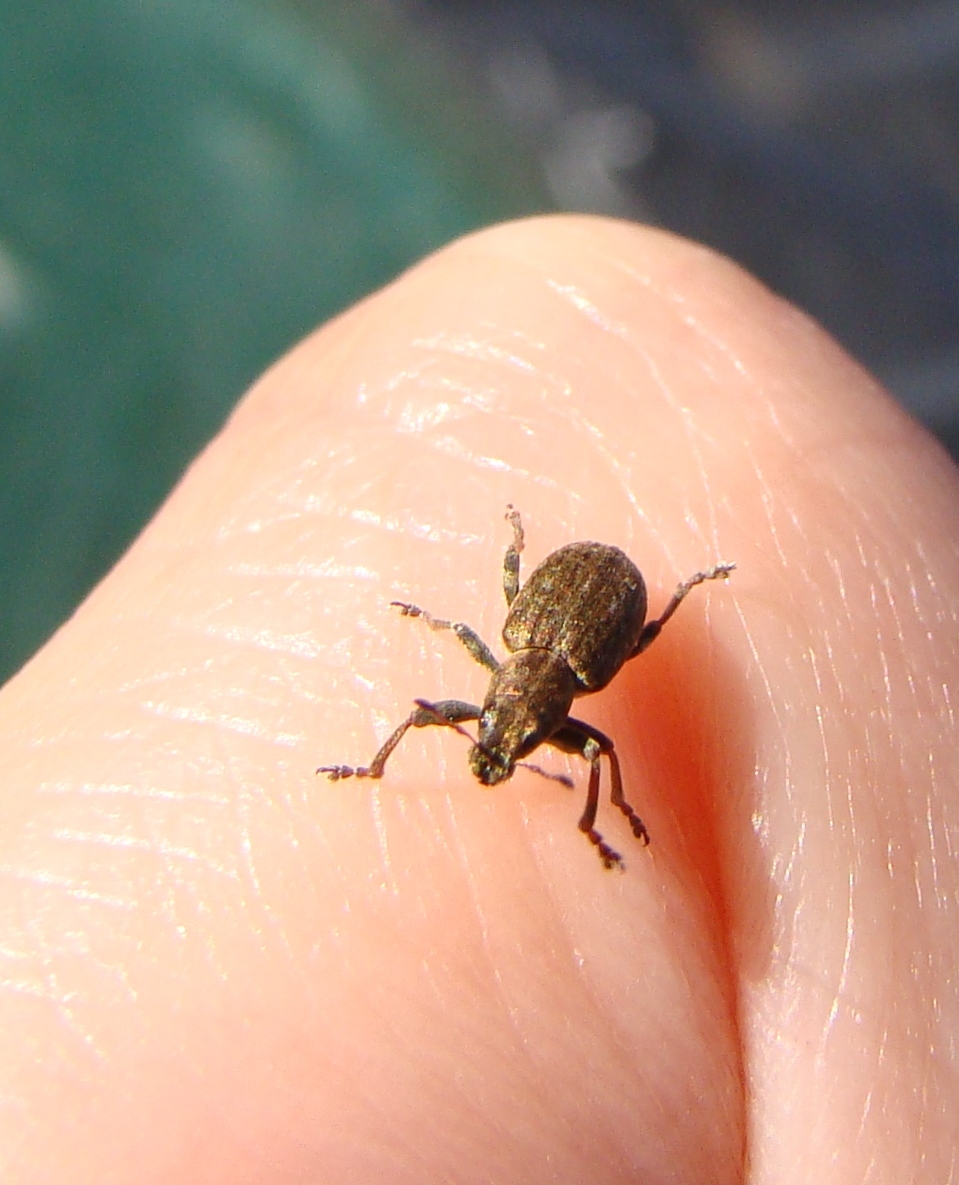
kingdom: Animalia
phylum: Arthropoda
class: Insecta
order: Coleoptera
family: Curculionidae
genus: Sitona
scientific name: Sitona obsoletus
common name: Weevil
